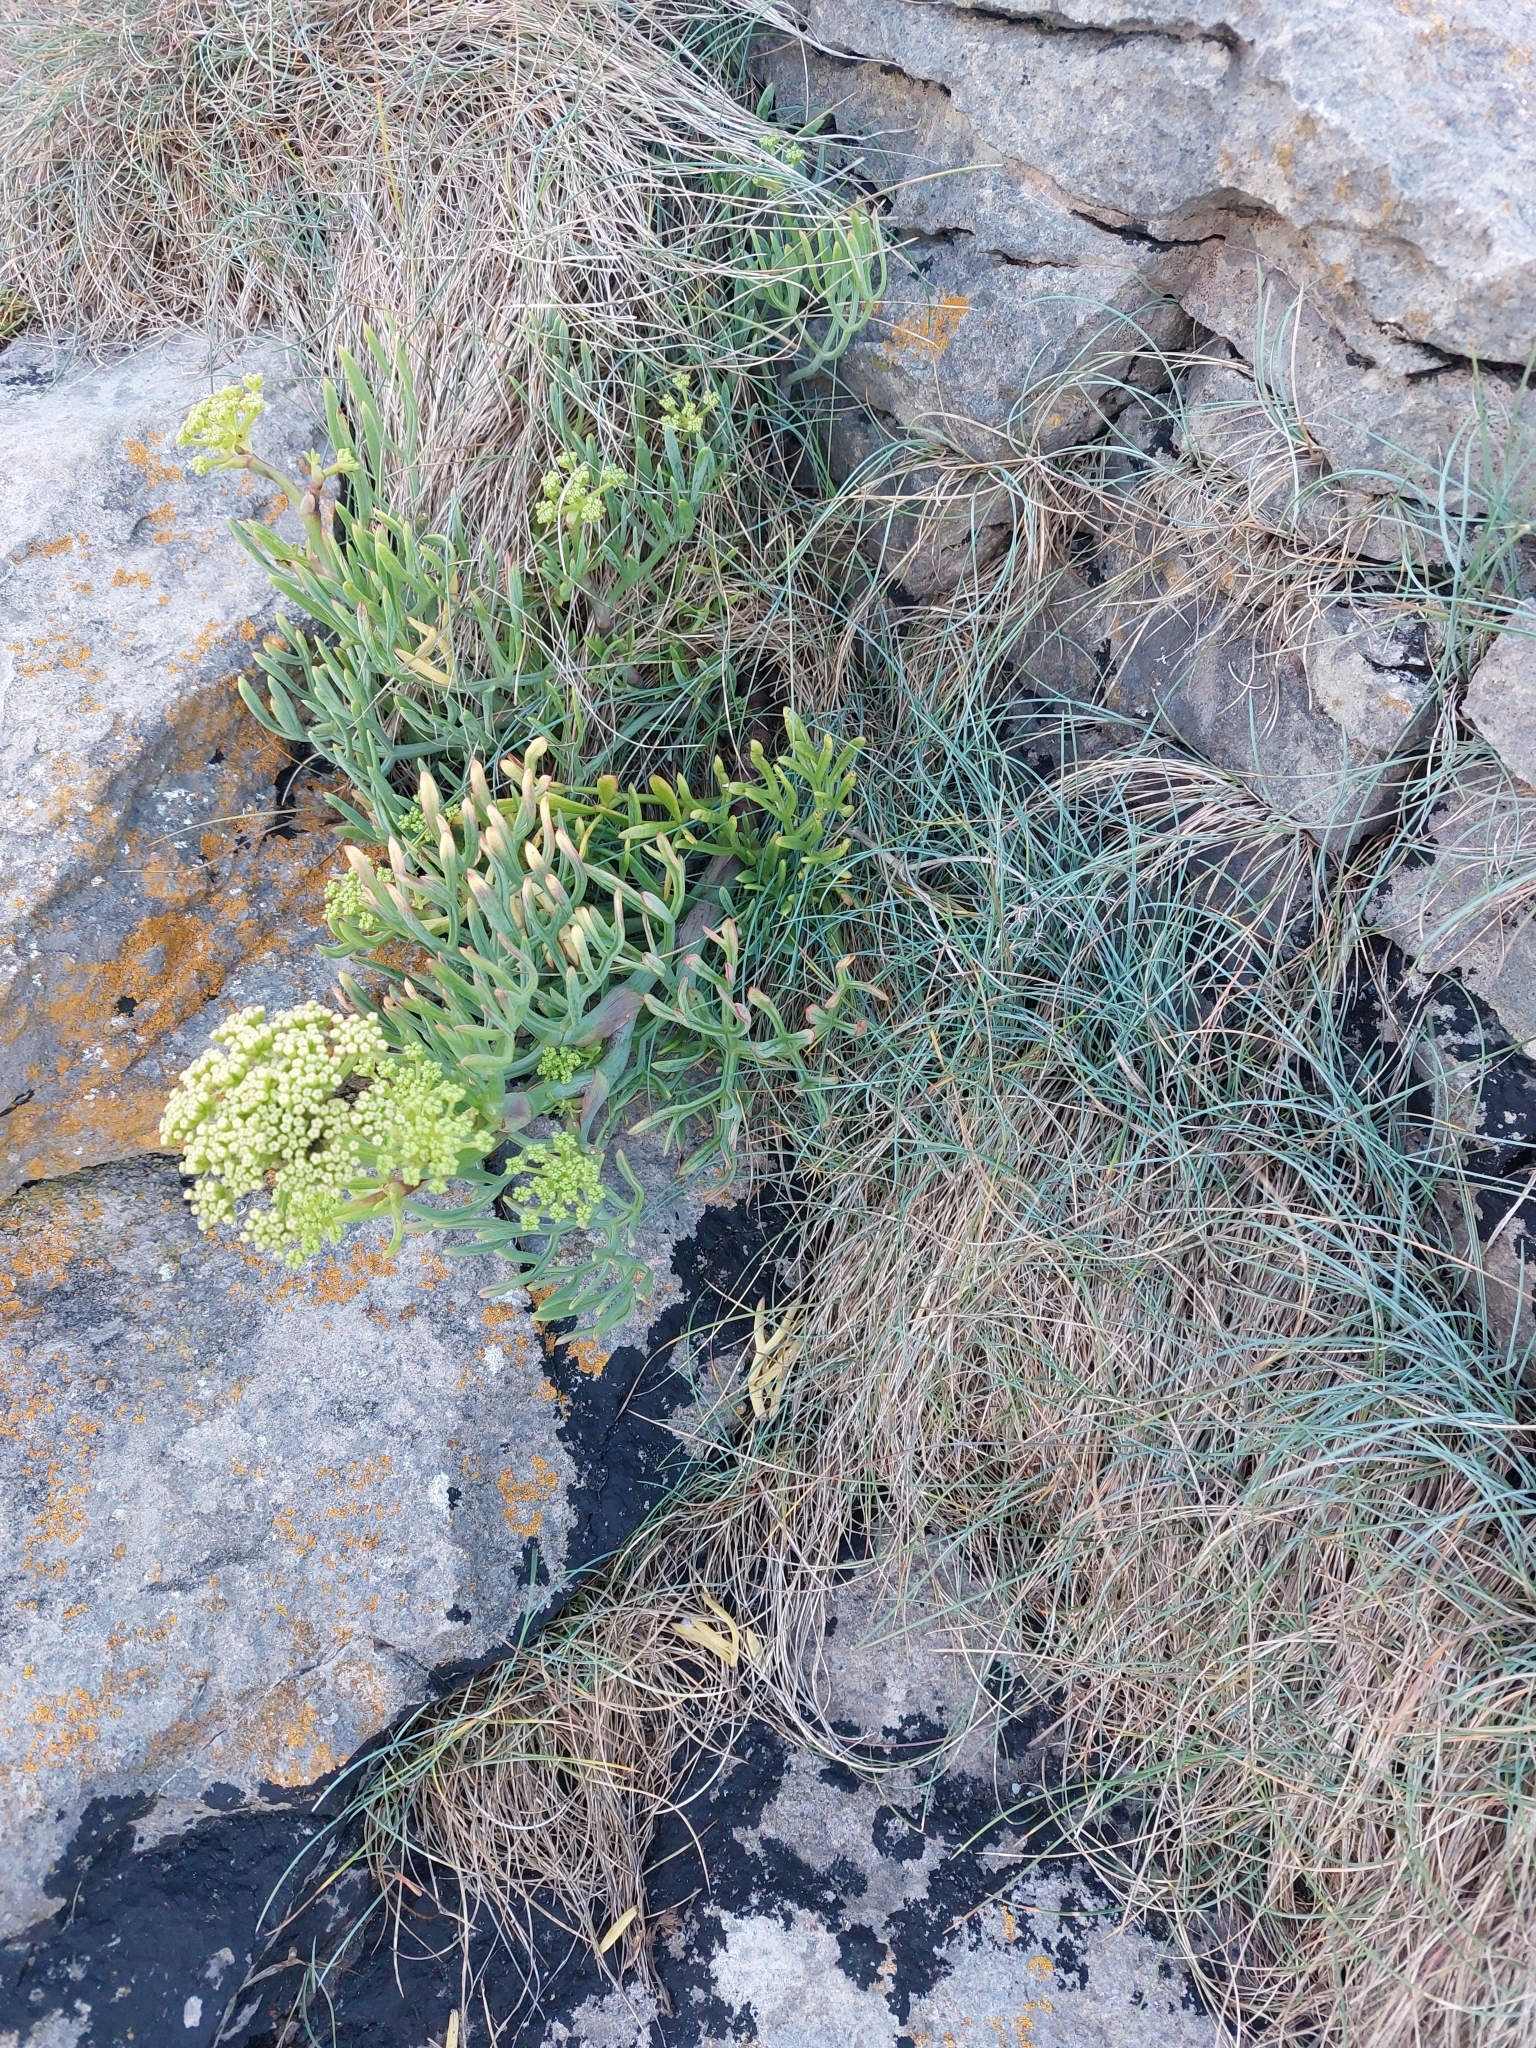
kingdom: Plantae
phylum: Tracheophyta
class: Magnoliopsida
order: Apiales
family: Apiaceae
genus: Crithmum
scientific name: Crithmum maritimum
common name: Rock samphire
